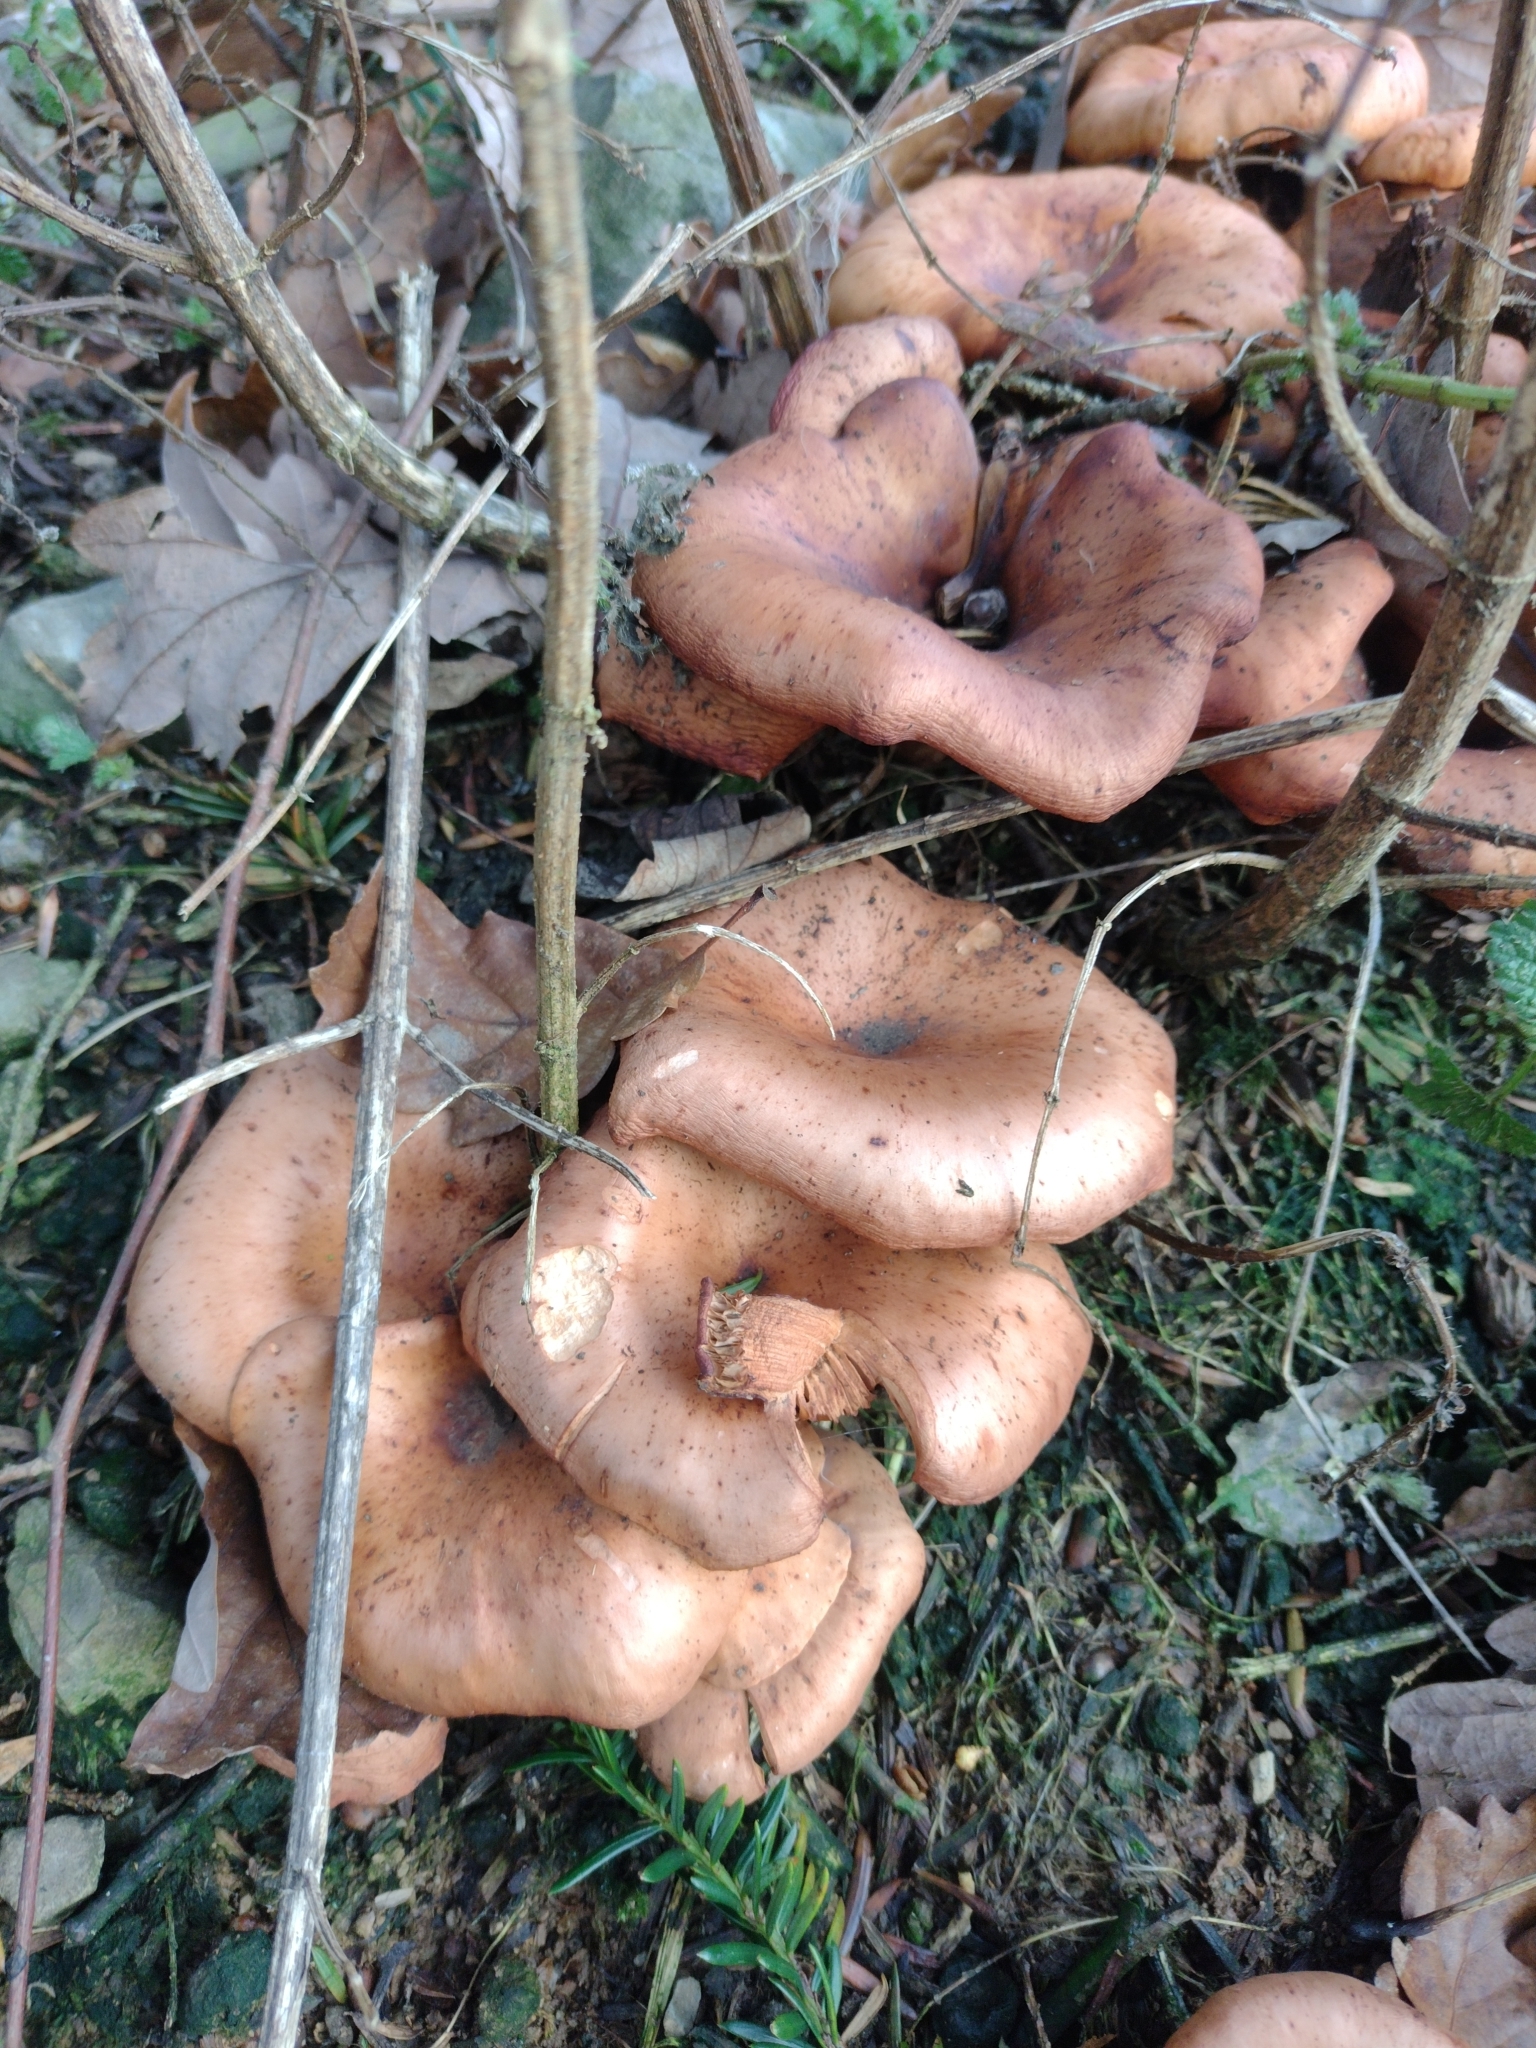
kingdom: Fungi
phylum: Basidiomycota
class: Agaricomycetes
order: Agaricales
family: Tricholomataceae
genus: Paralepista
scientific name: Paralepista flaccida
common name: Tawny funnel cap
